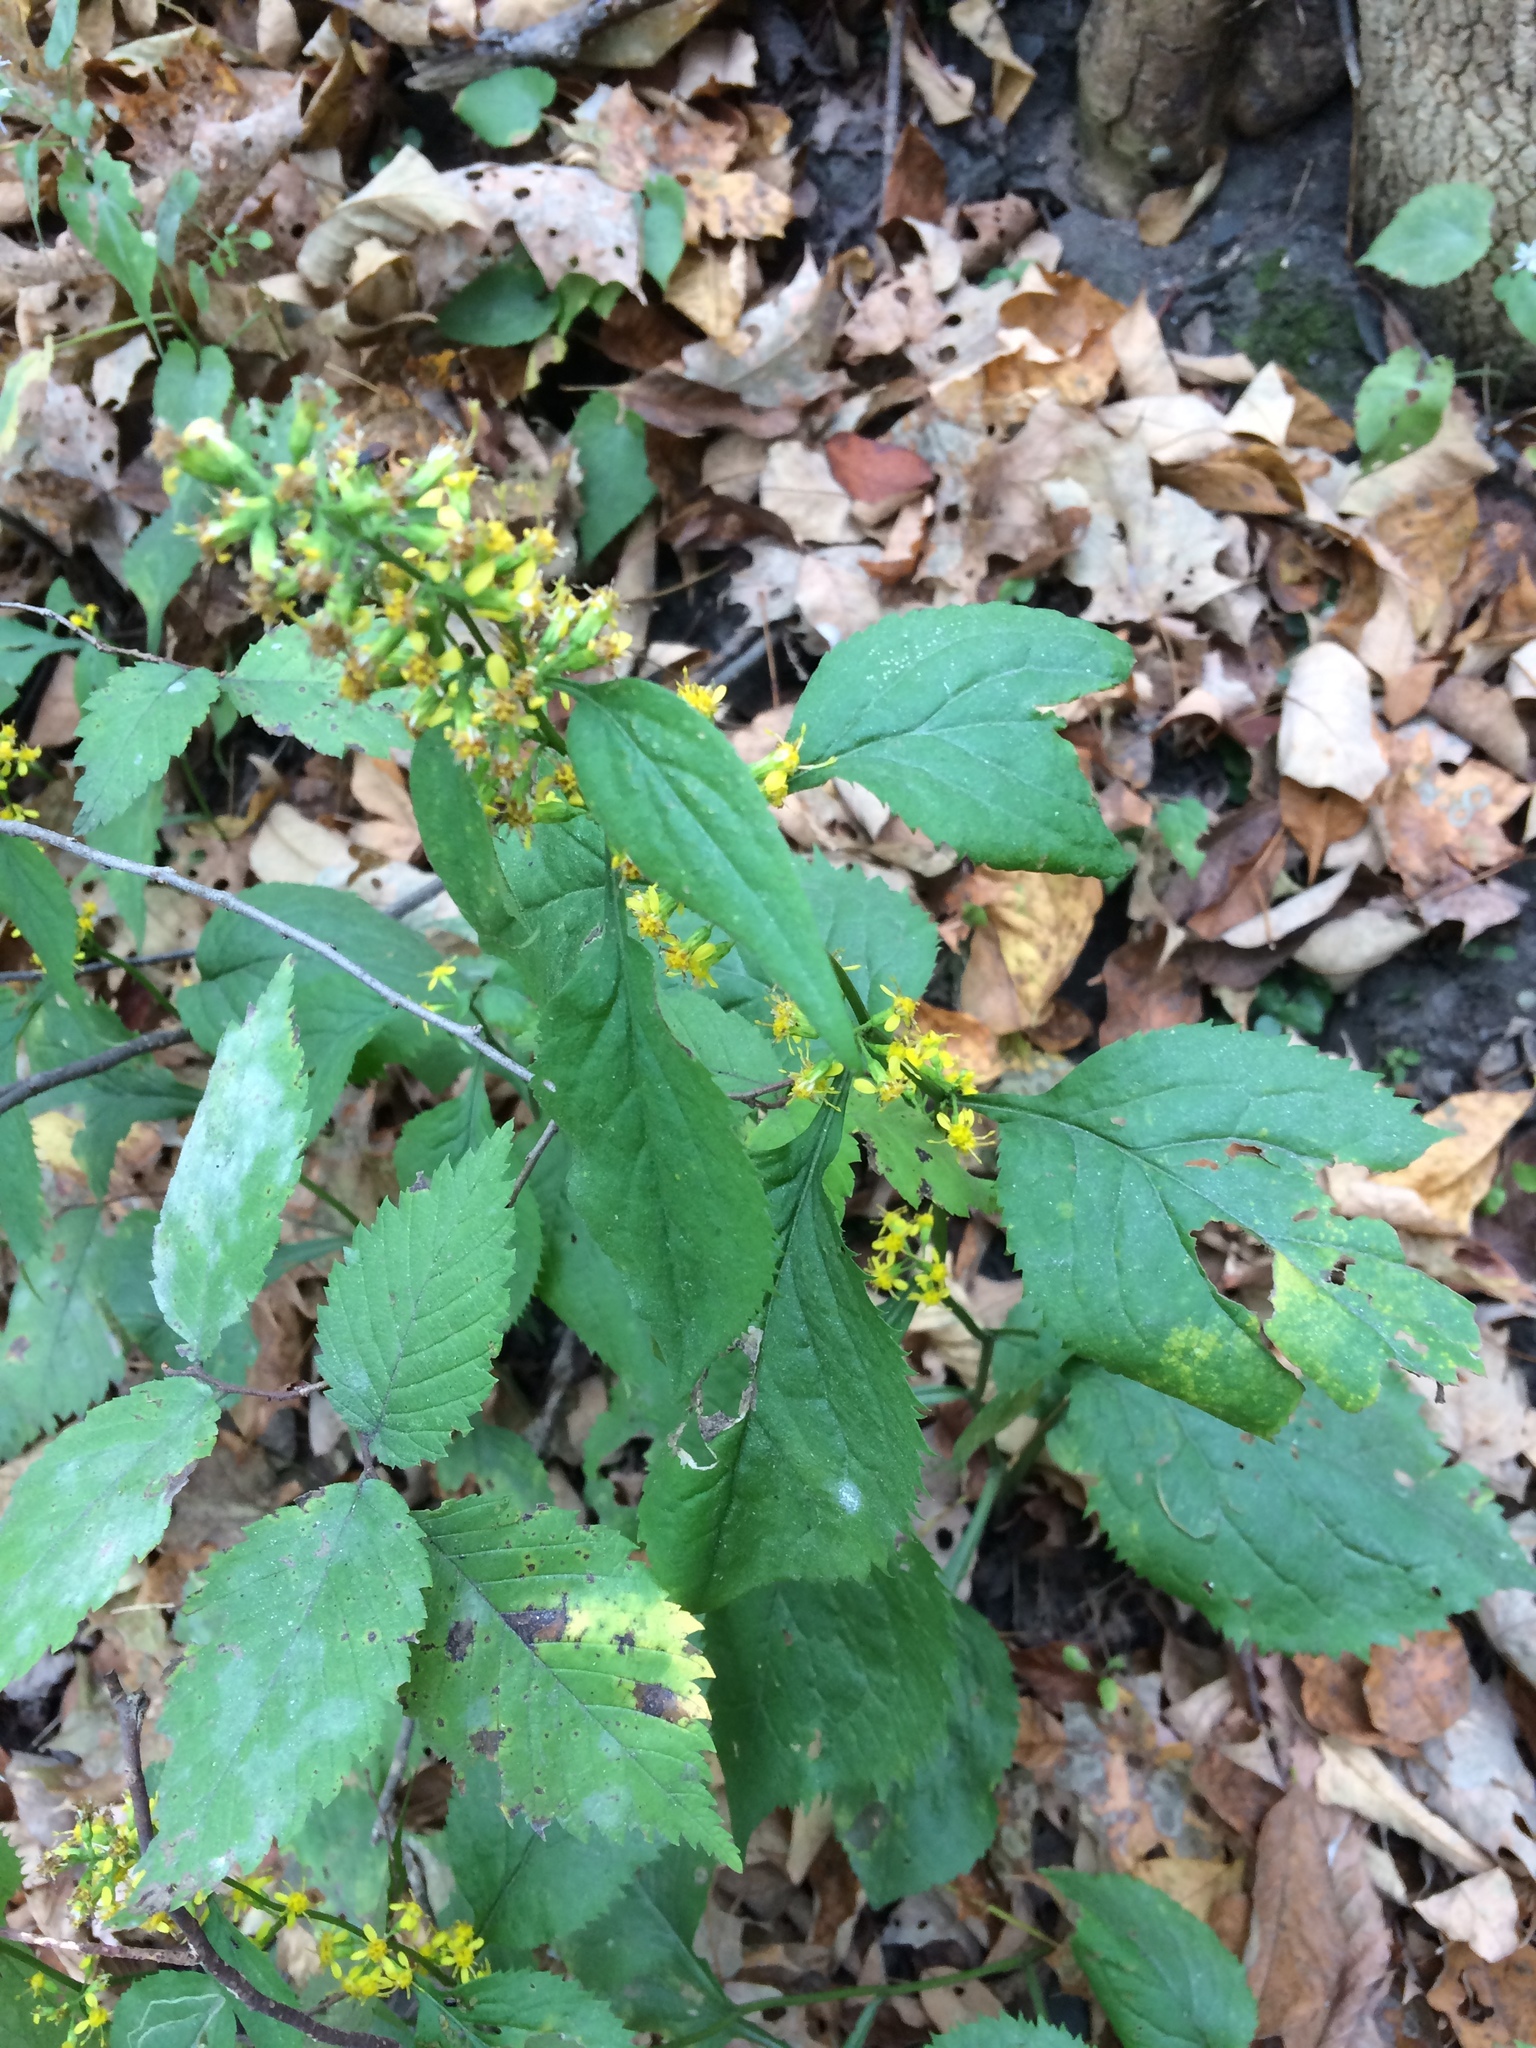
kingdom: Plantae
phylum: Tracheophyta
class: Magnoliopsida
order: Asterales
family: Asteraceae
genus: Solidago
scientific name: Solidago flexicaulis
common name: Zig-zag goldenrod
